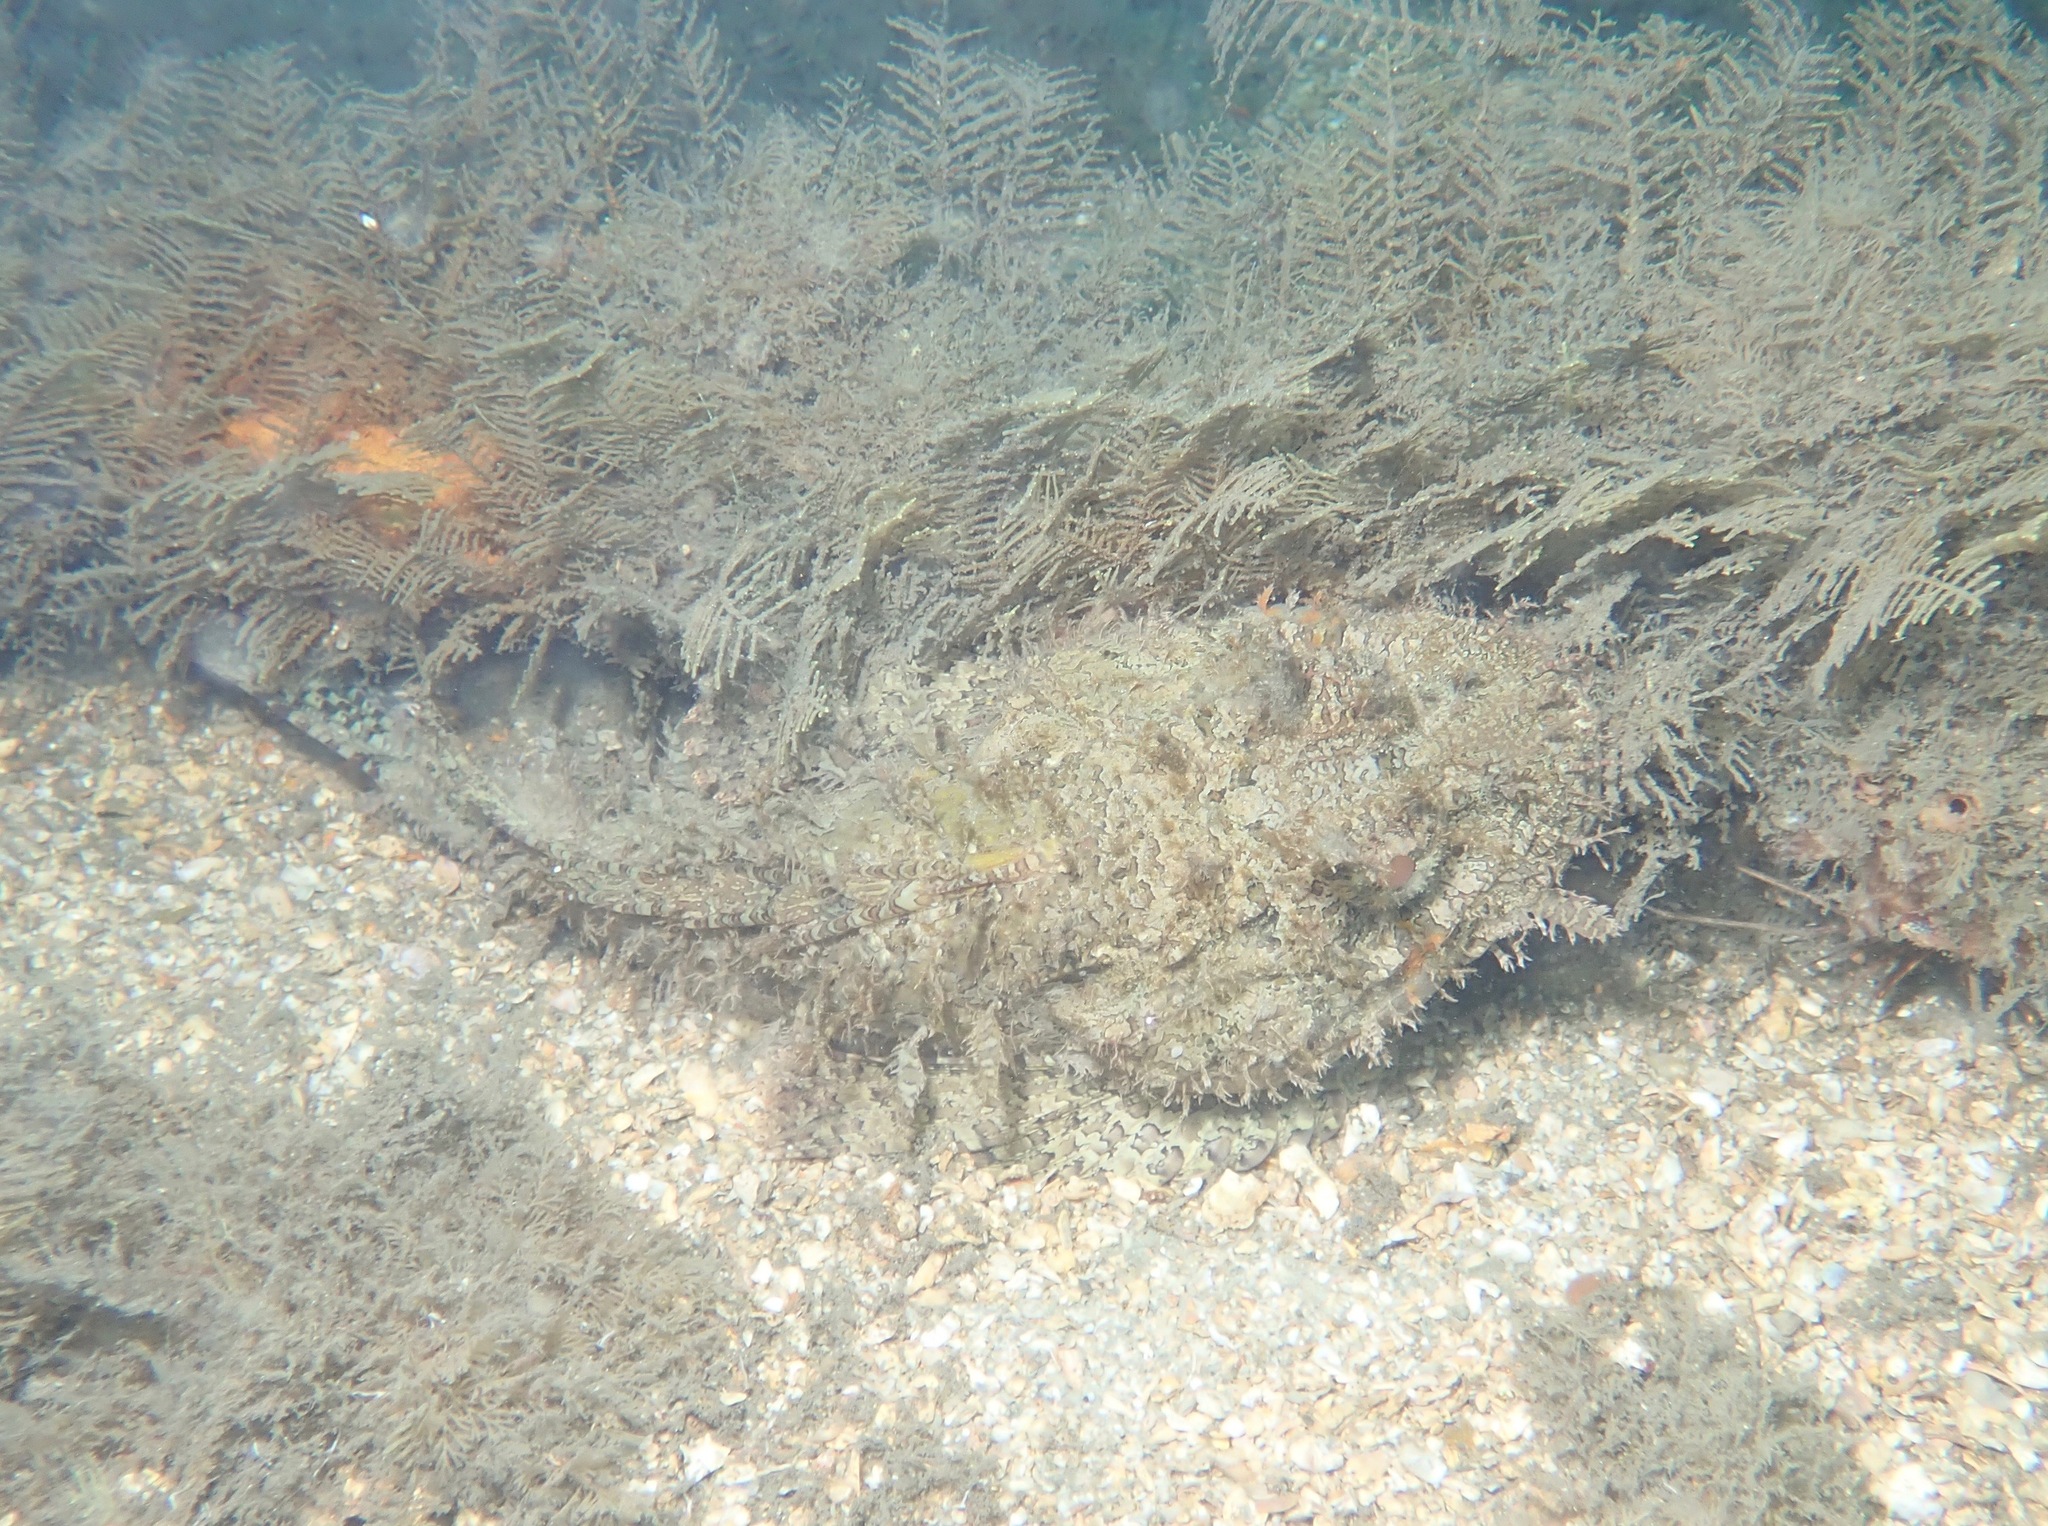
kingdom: Animalia
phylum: Chordata
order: Scorpaeniformes
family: Scorpaenidae
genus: Scorpaena
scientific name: Scorpaena plumieri
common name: Spotted scorpionfish
